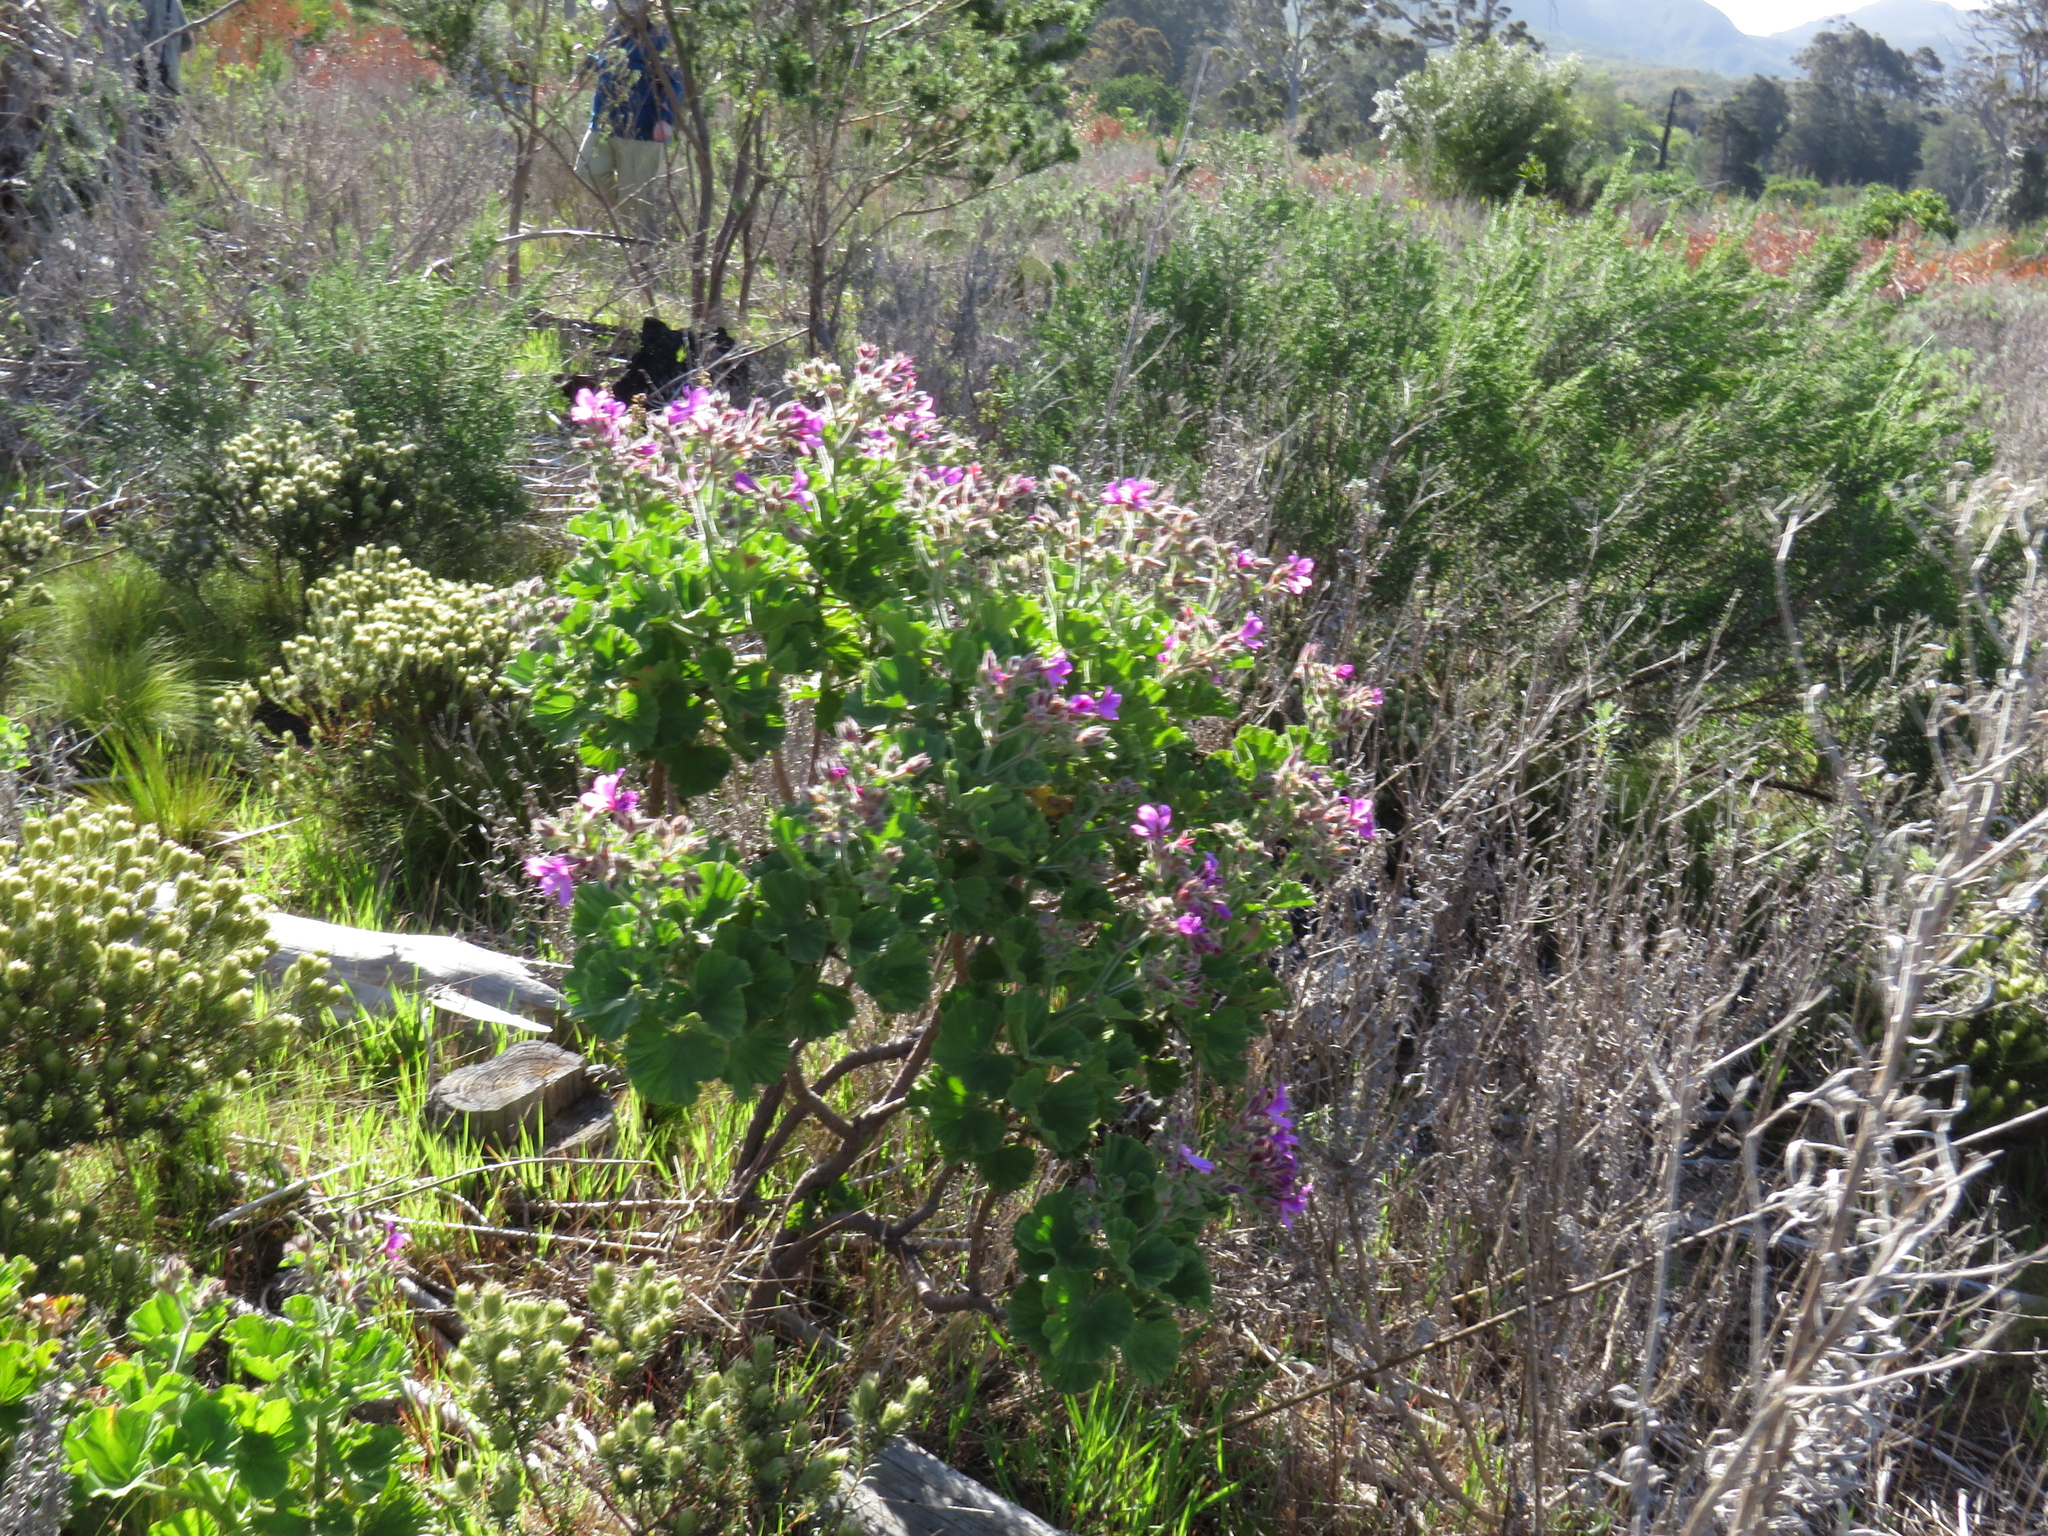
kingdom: Plantae
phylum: Tracheophyta
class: Magnoliopsida
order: Geraniales
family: Geraniaceae
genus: Pelargonium
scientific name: Pelargonium cucullatum
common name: Tree pelargonium
